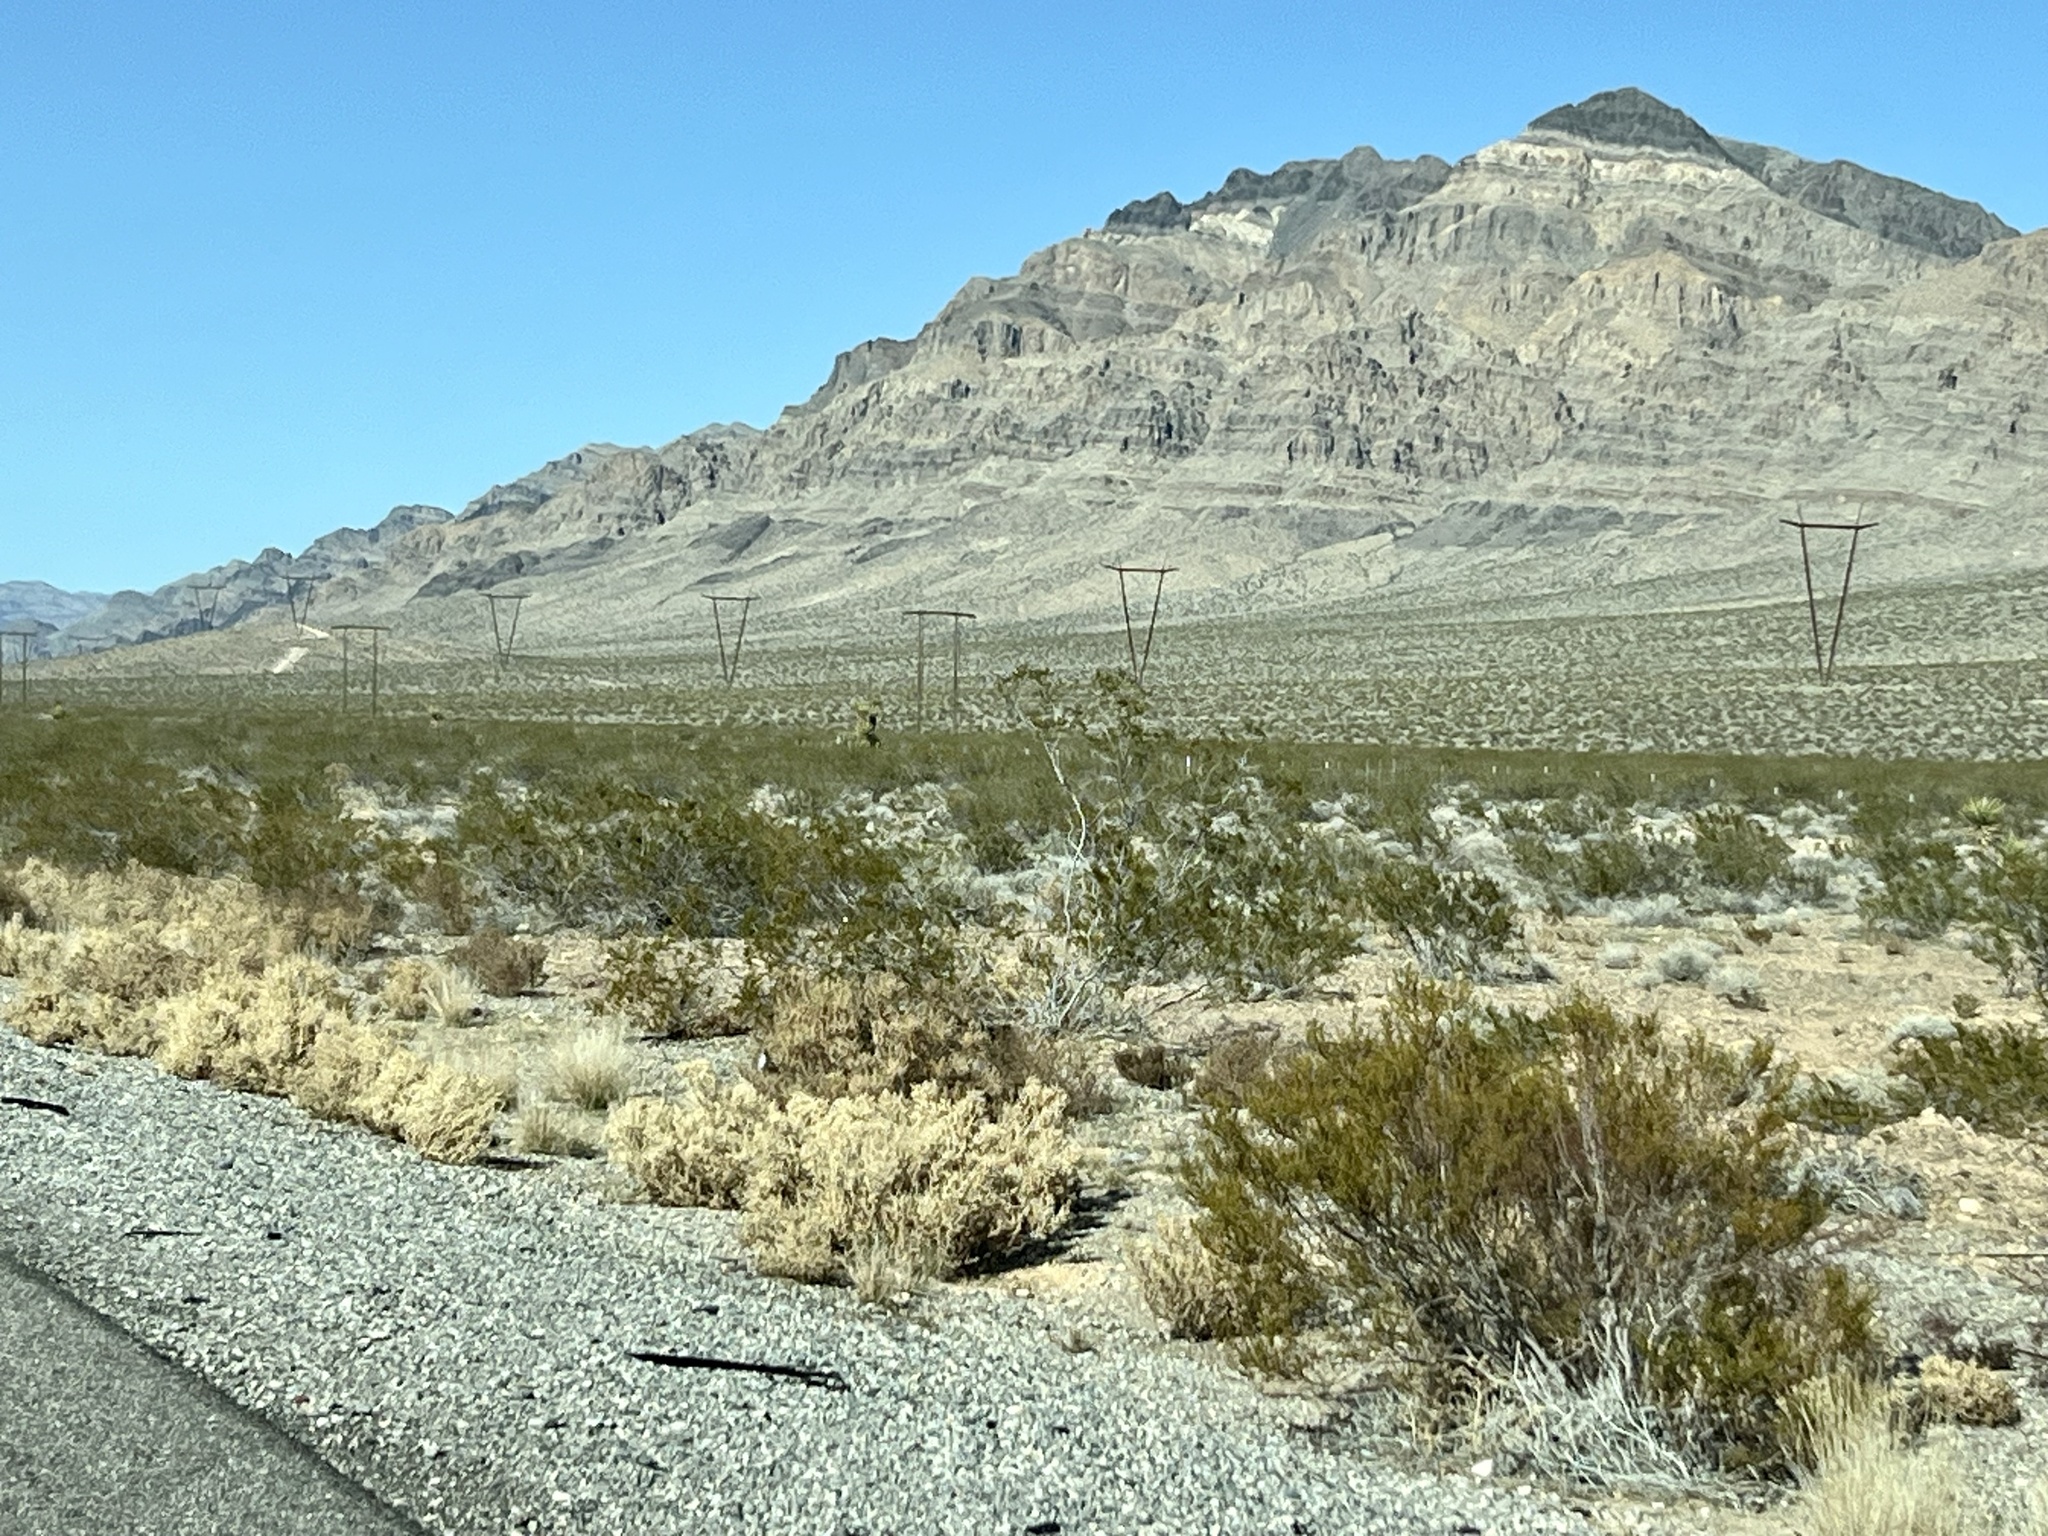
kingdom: Plantae
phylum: Tracheophyta
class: Magnoliopsida
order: Zygophyllales
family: Zygophyllaceae
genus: Larrea
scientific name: Larrea tridentata
